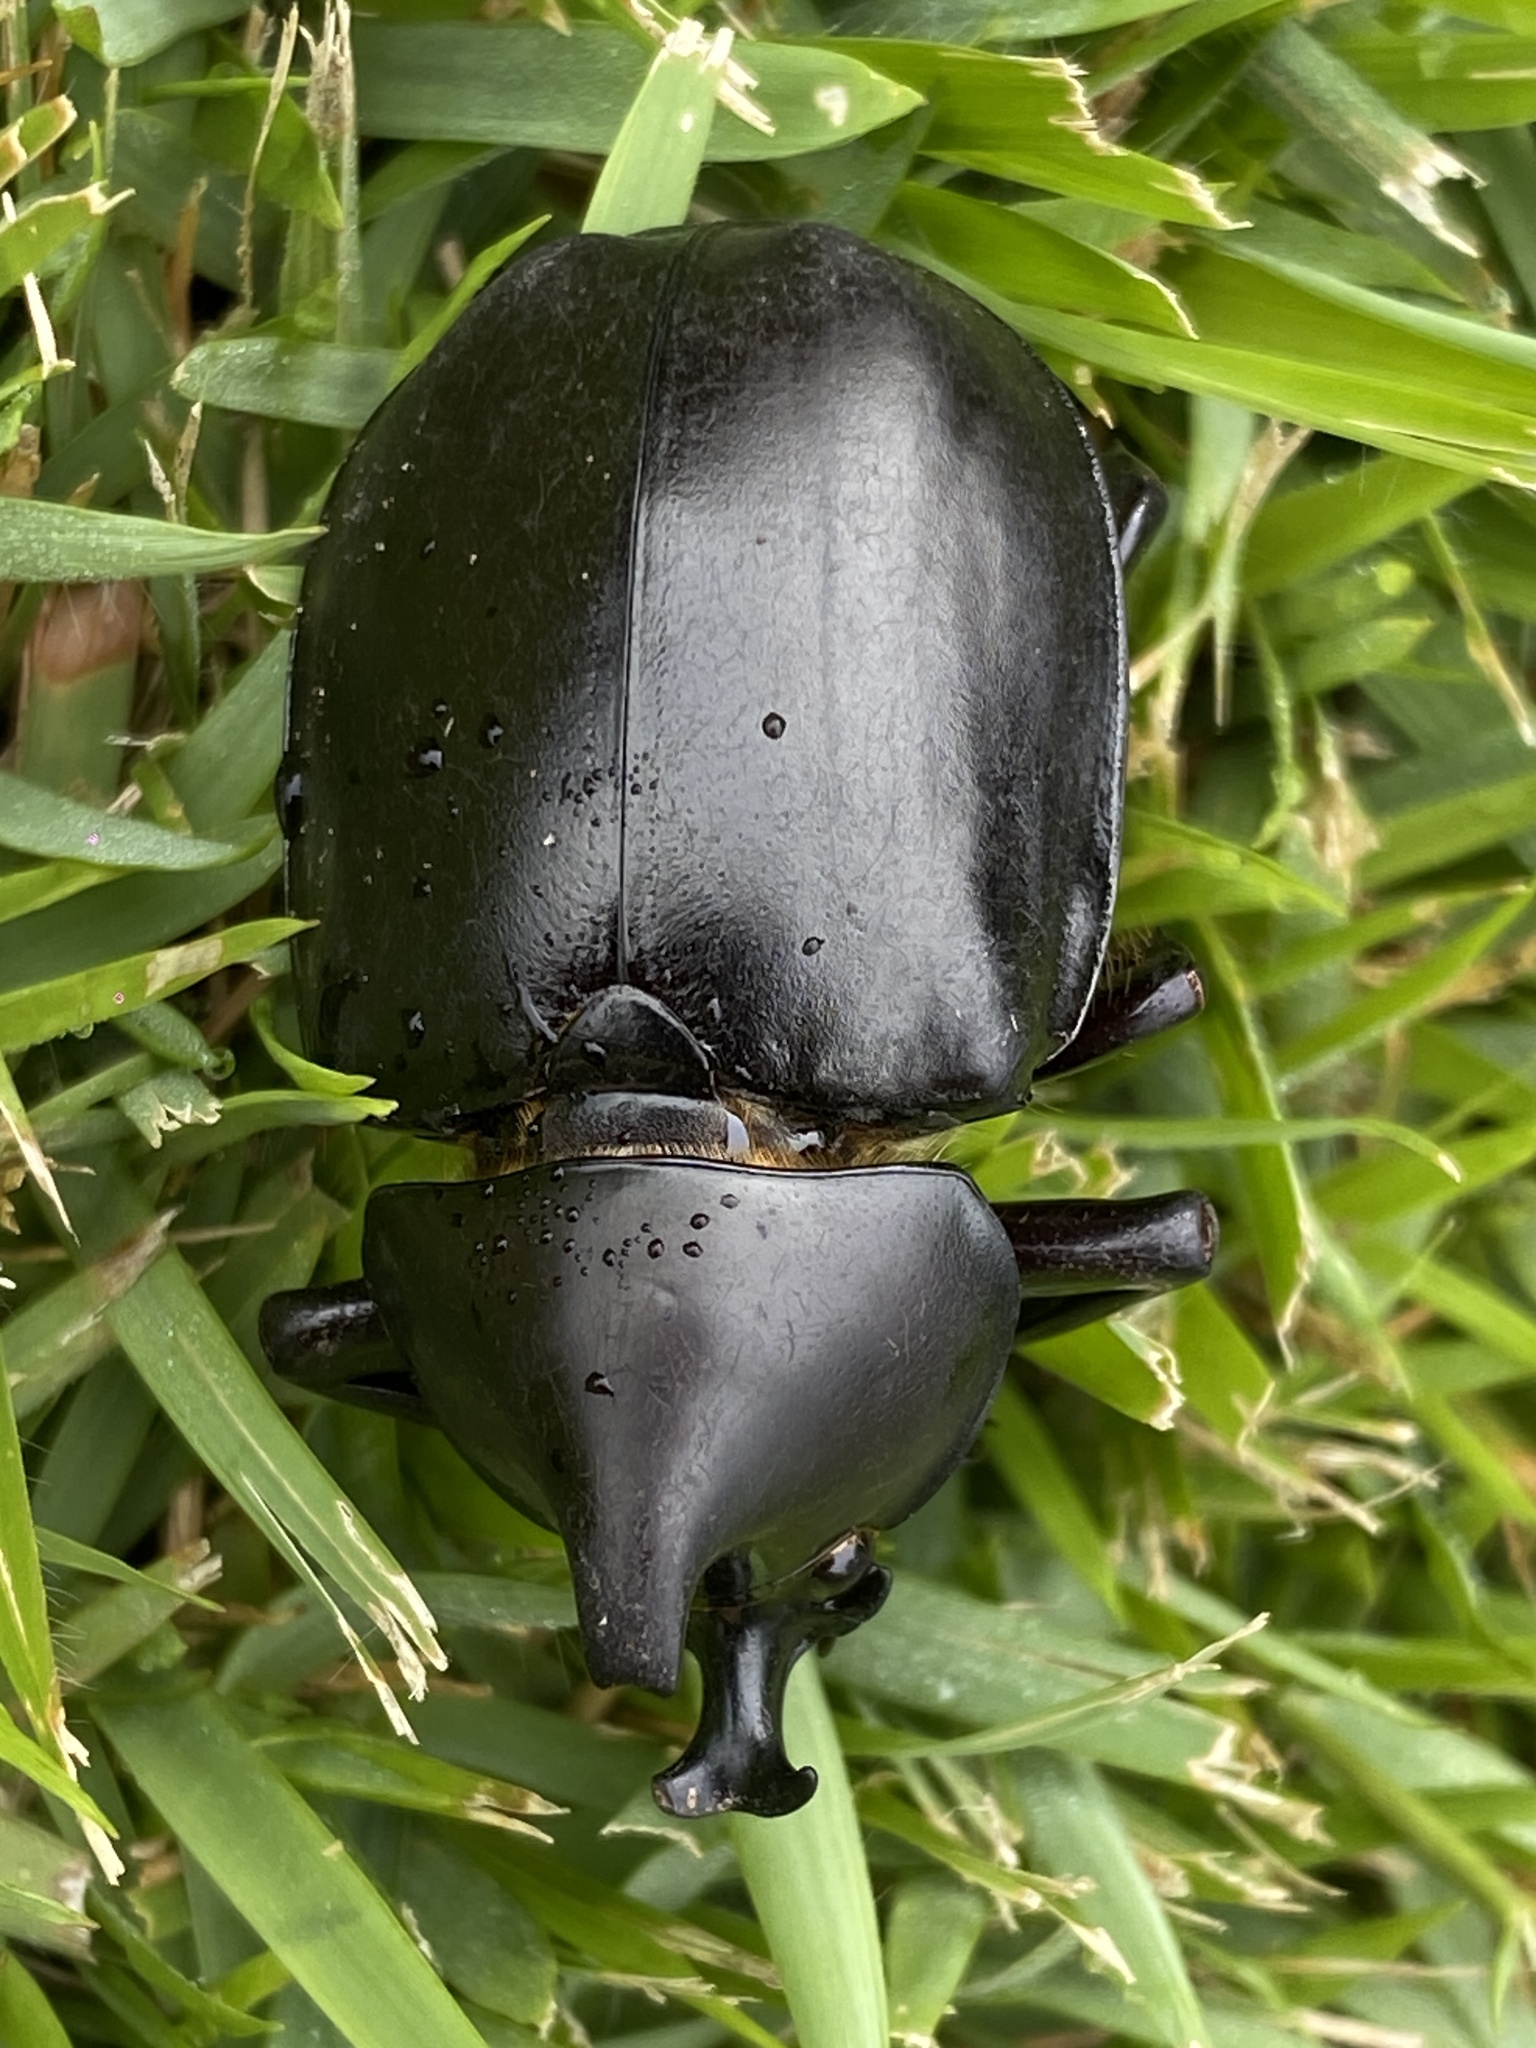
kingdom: Animalia
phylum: Arthropoda
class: Insecta
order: Coleoptera
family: Scarabaeidae
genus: Xylotrupes
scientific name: Xylotrupes australicus
